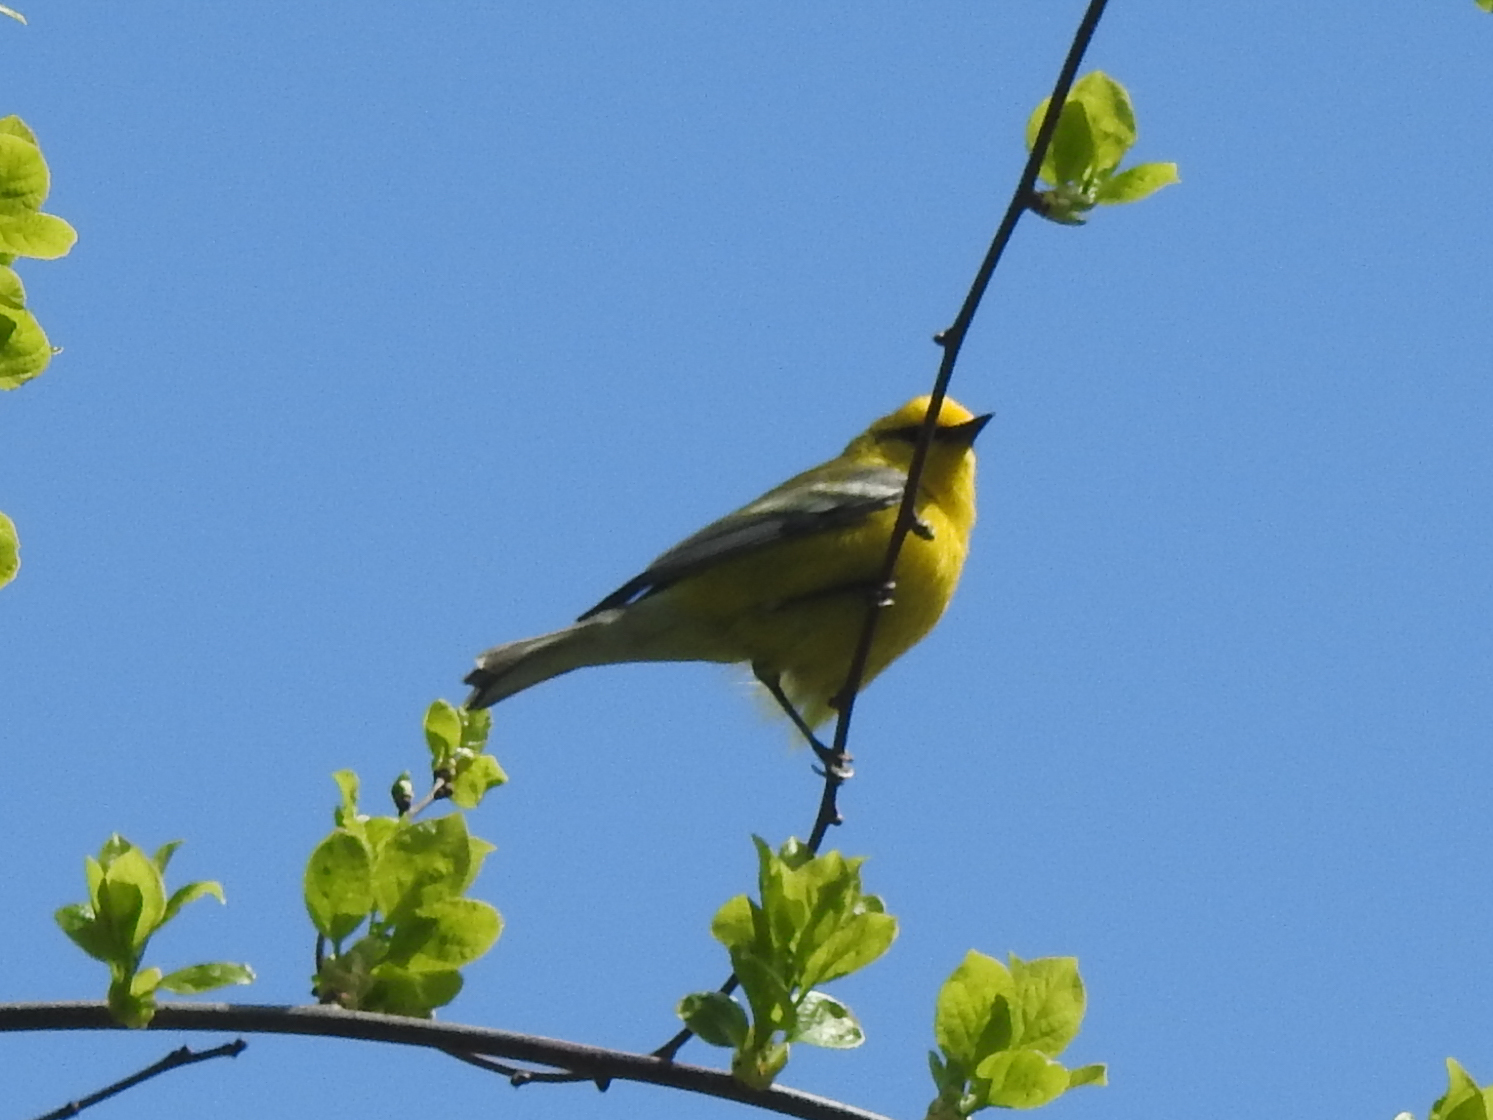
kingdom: Animalia
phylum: Chordata
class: Aves
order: Passeriformes
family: Parulidae
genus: Vermivora
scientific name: Vermivora cyanoptera
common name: Blue-winged warbler
